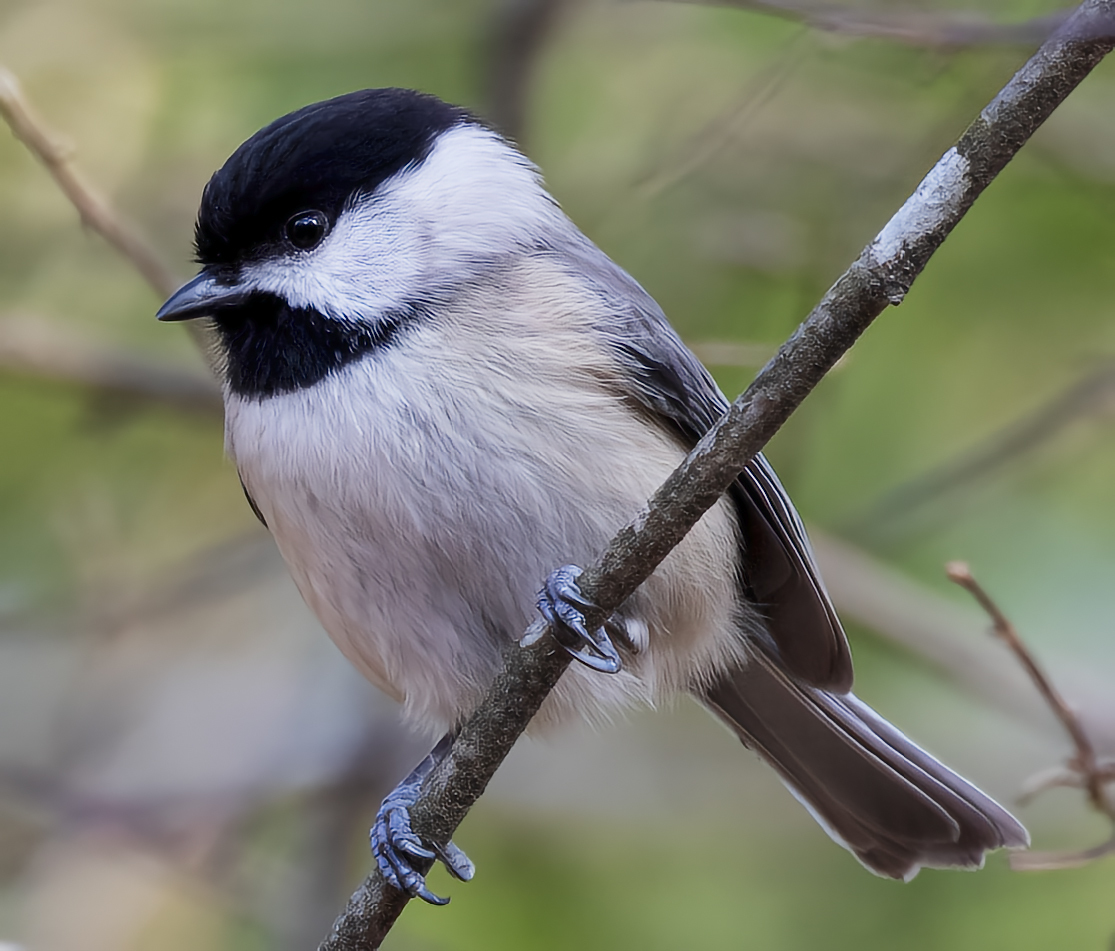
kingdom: Animalia
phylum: Chordata
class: Aves
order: Passeriformes
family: Paridae
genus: Poecile
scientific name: Poecile carolinensis
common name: Carolina chickadee
